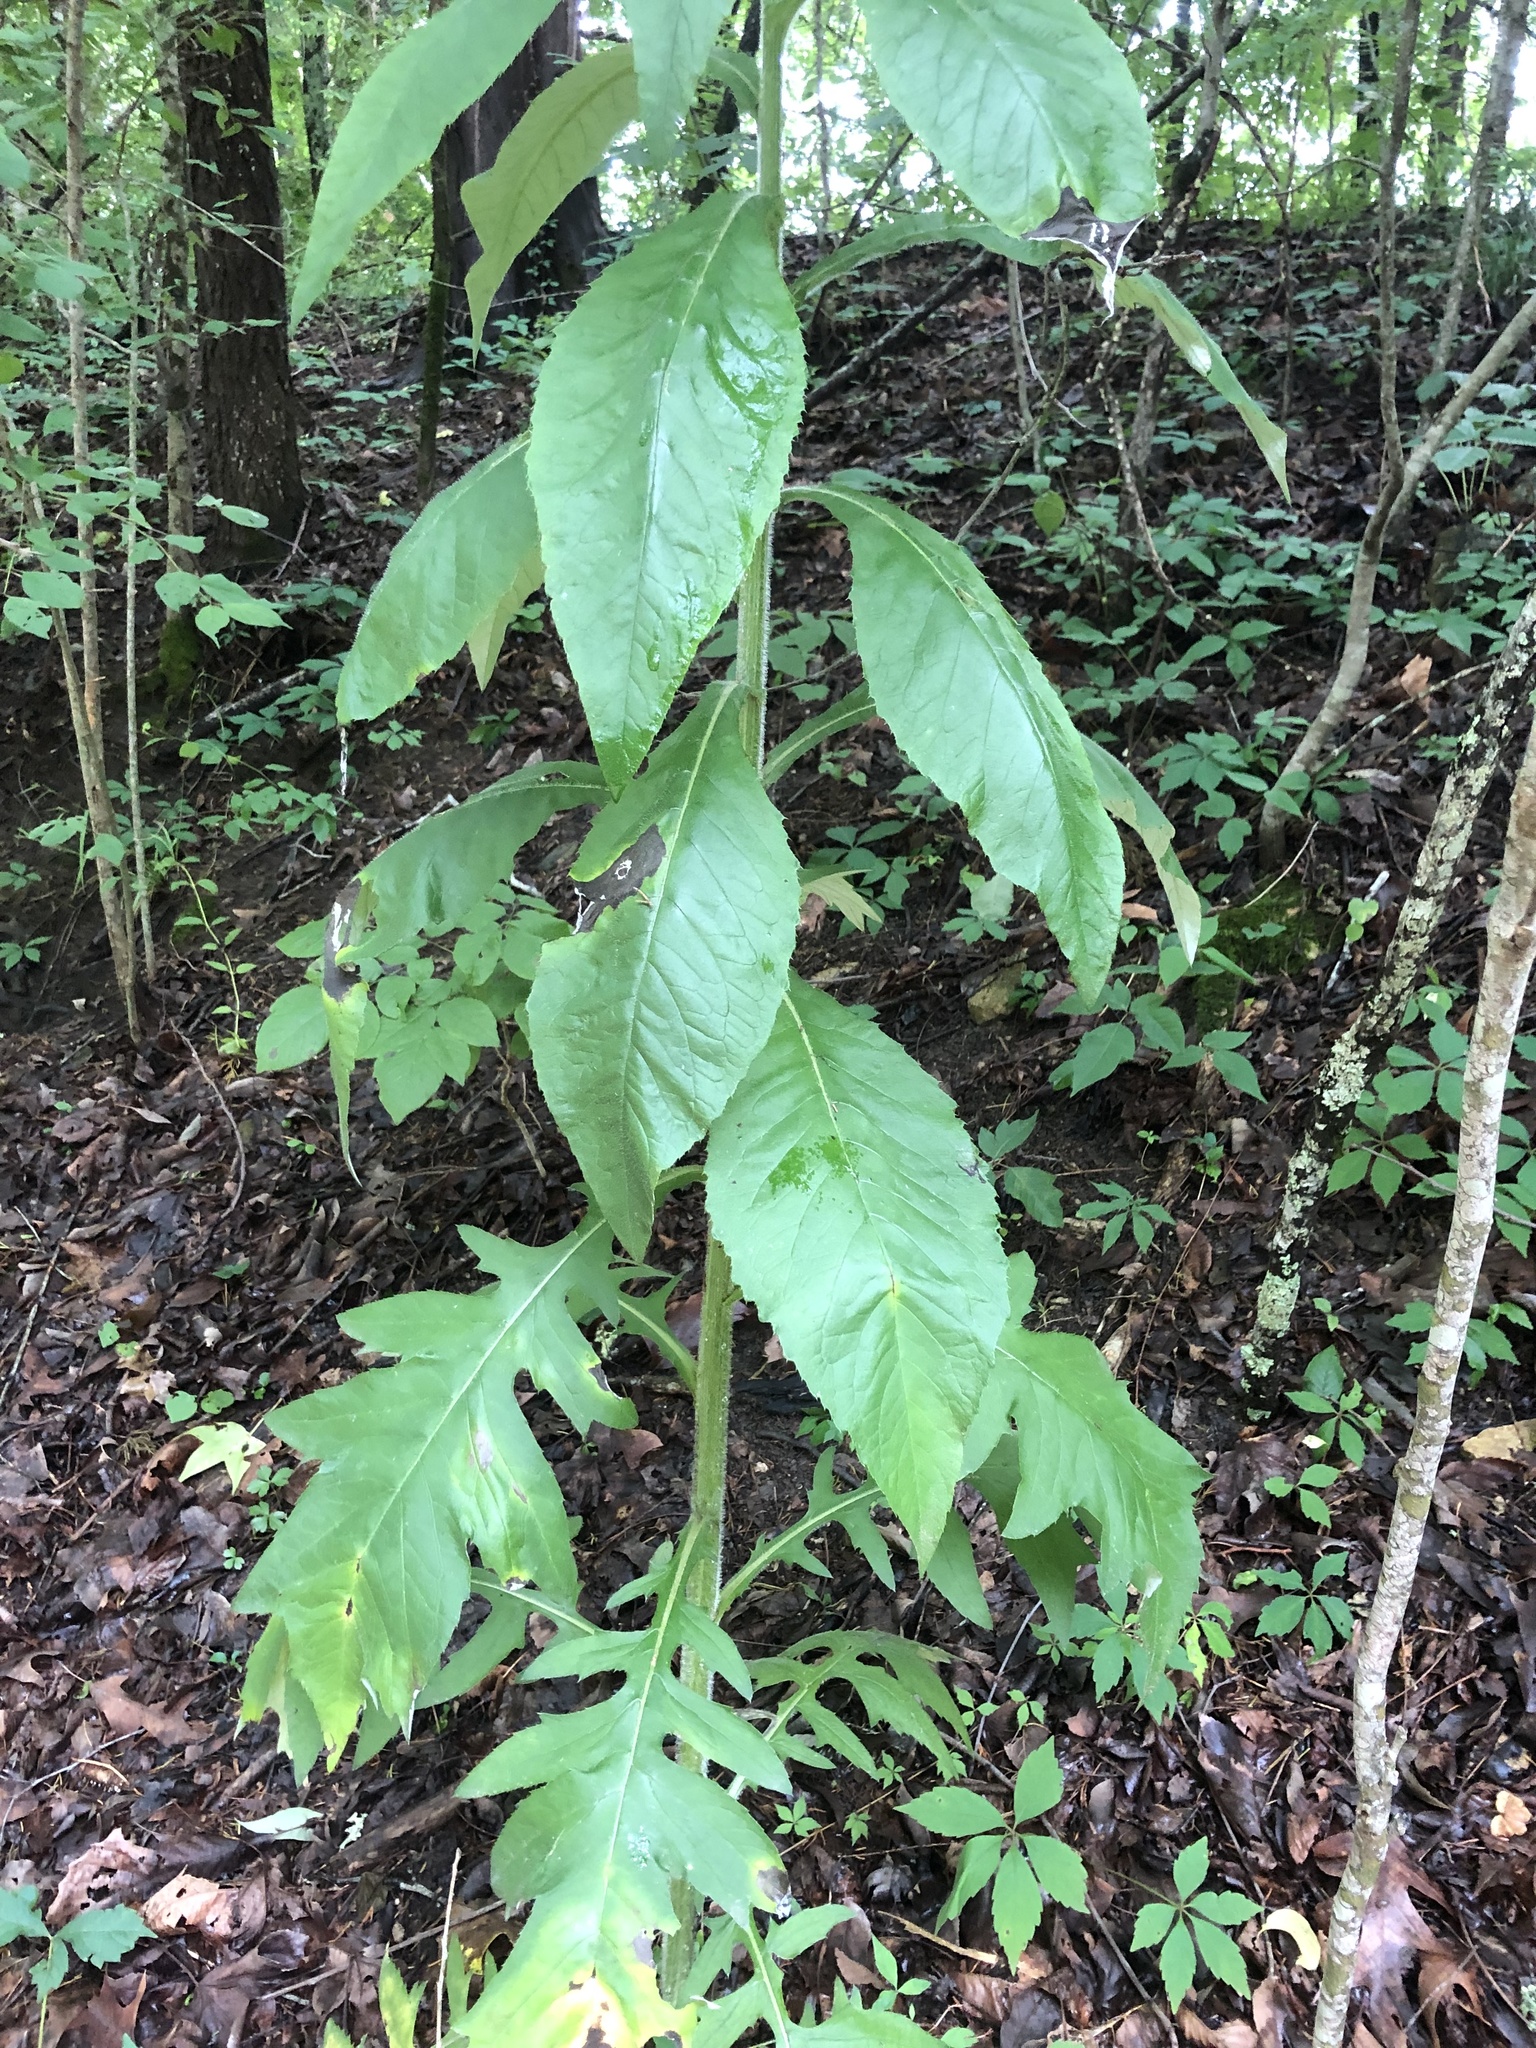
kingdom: Plantae
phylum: Tracheophyta
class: Magnoliopsida
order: Asterales
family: Asteraceae
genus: Cirsium
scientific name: Cirsium altissimum
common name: Roadside thistle
